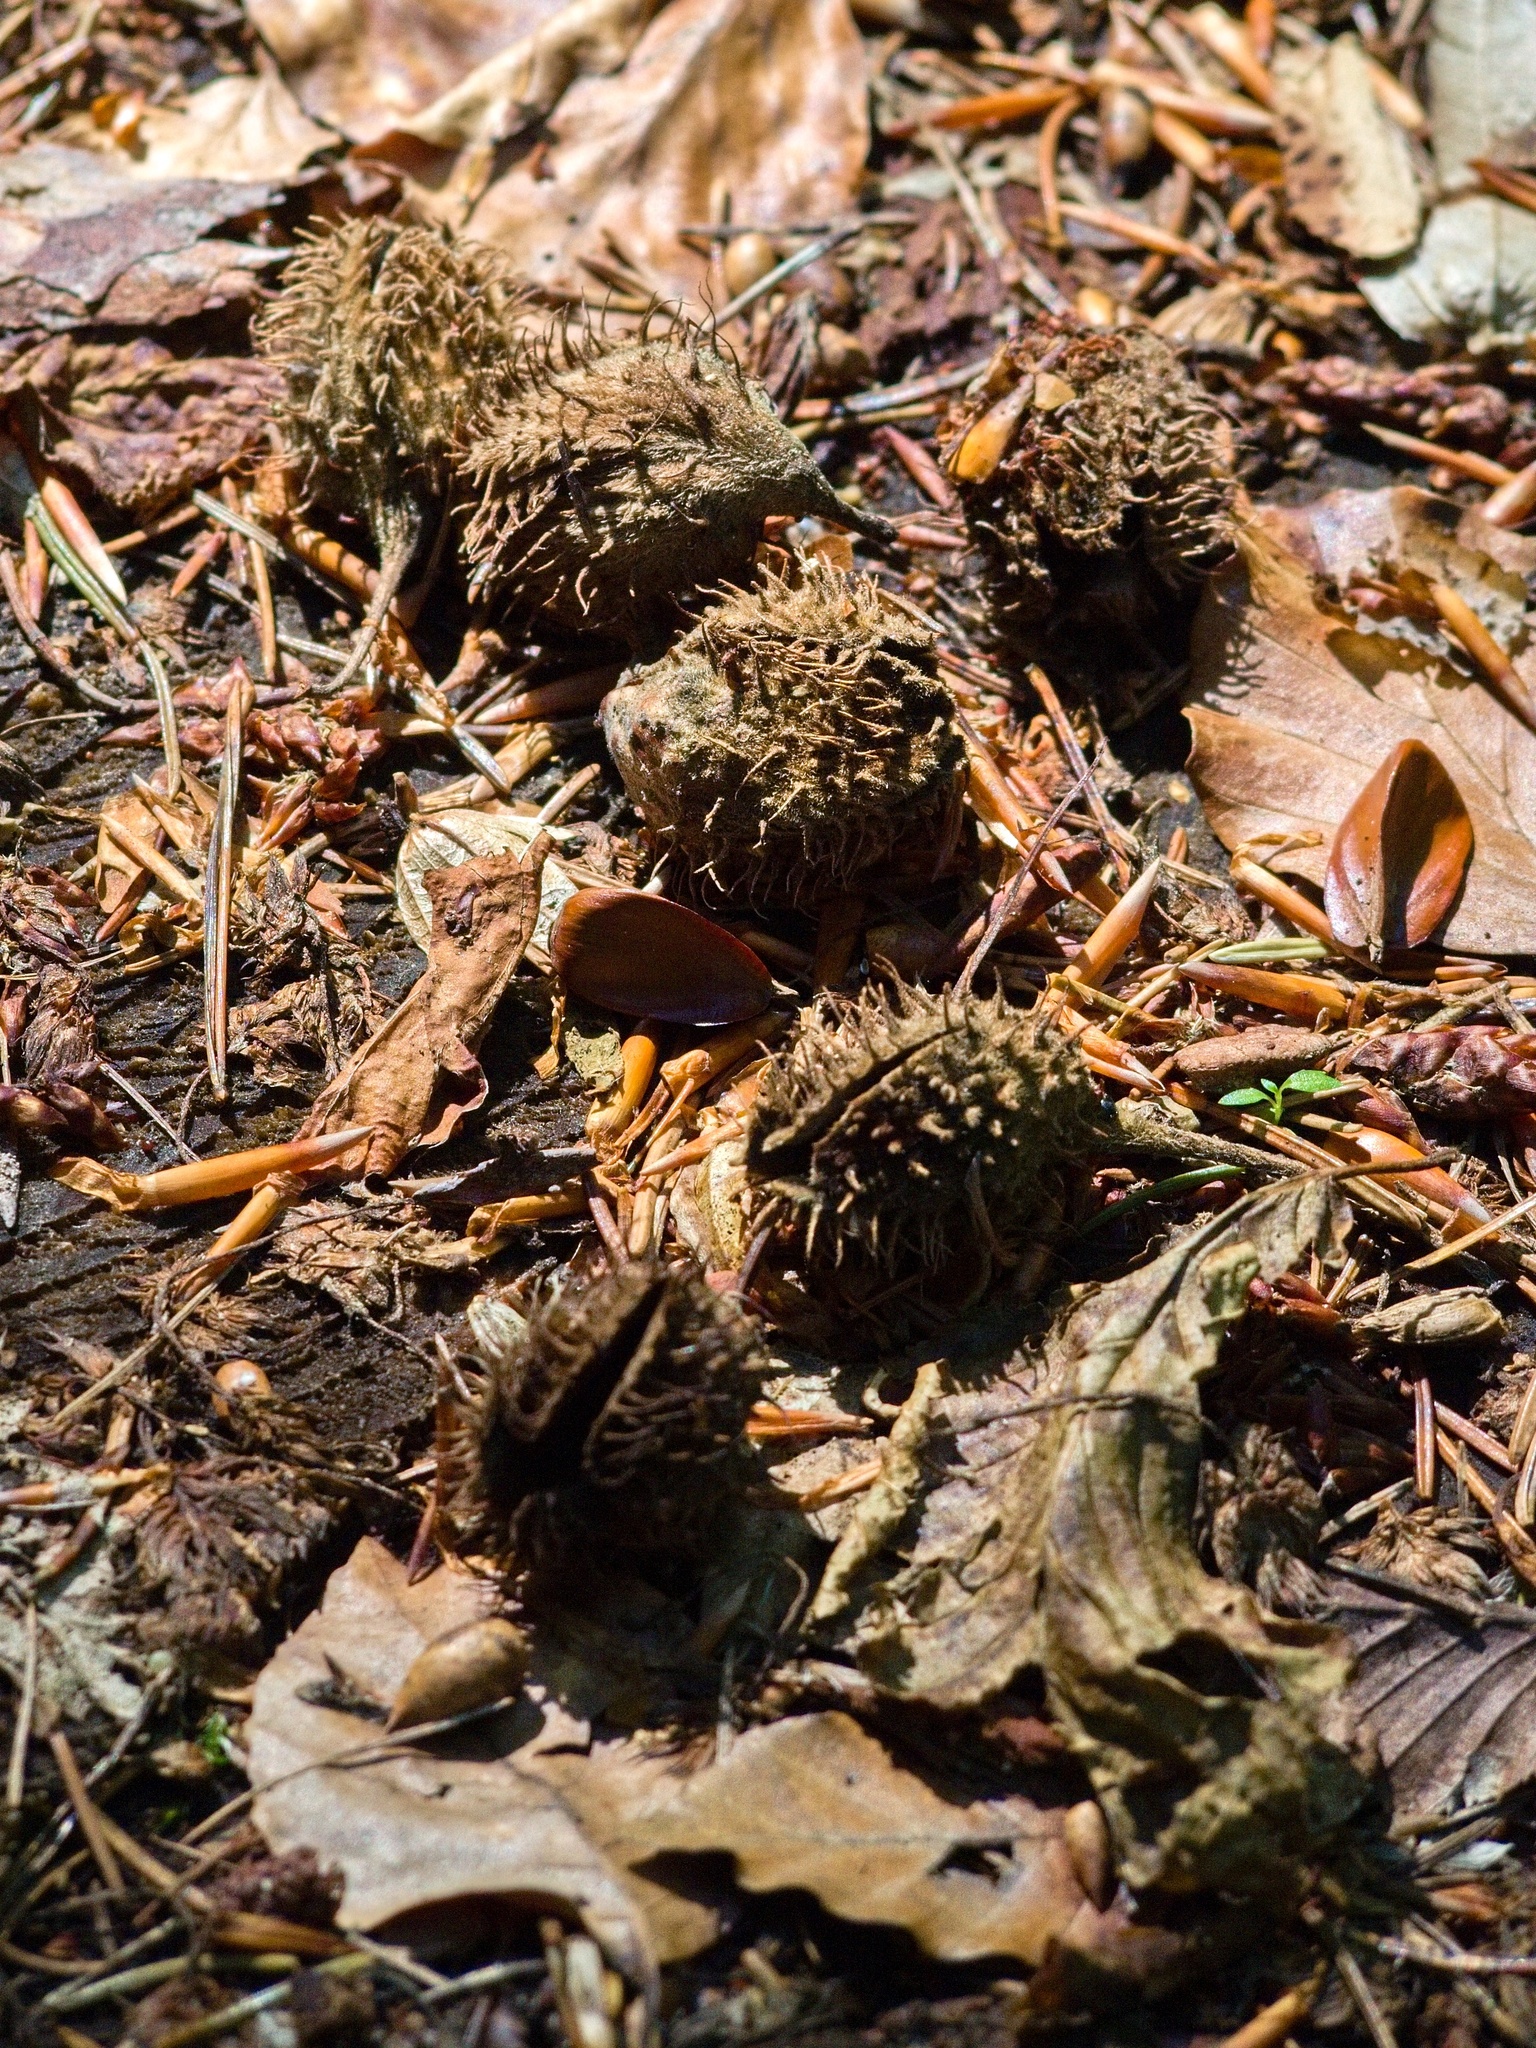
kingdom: Plantae
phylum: Tracheophyta
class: Magnoliopsida
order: Fagales
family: Fagaceae
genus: Fagus
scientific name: Fagus sylvatica
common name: Beech
